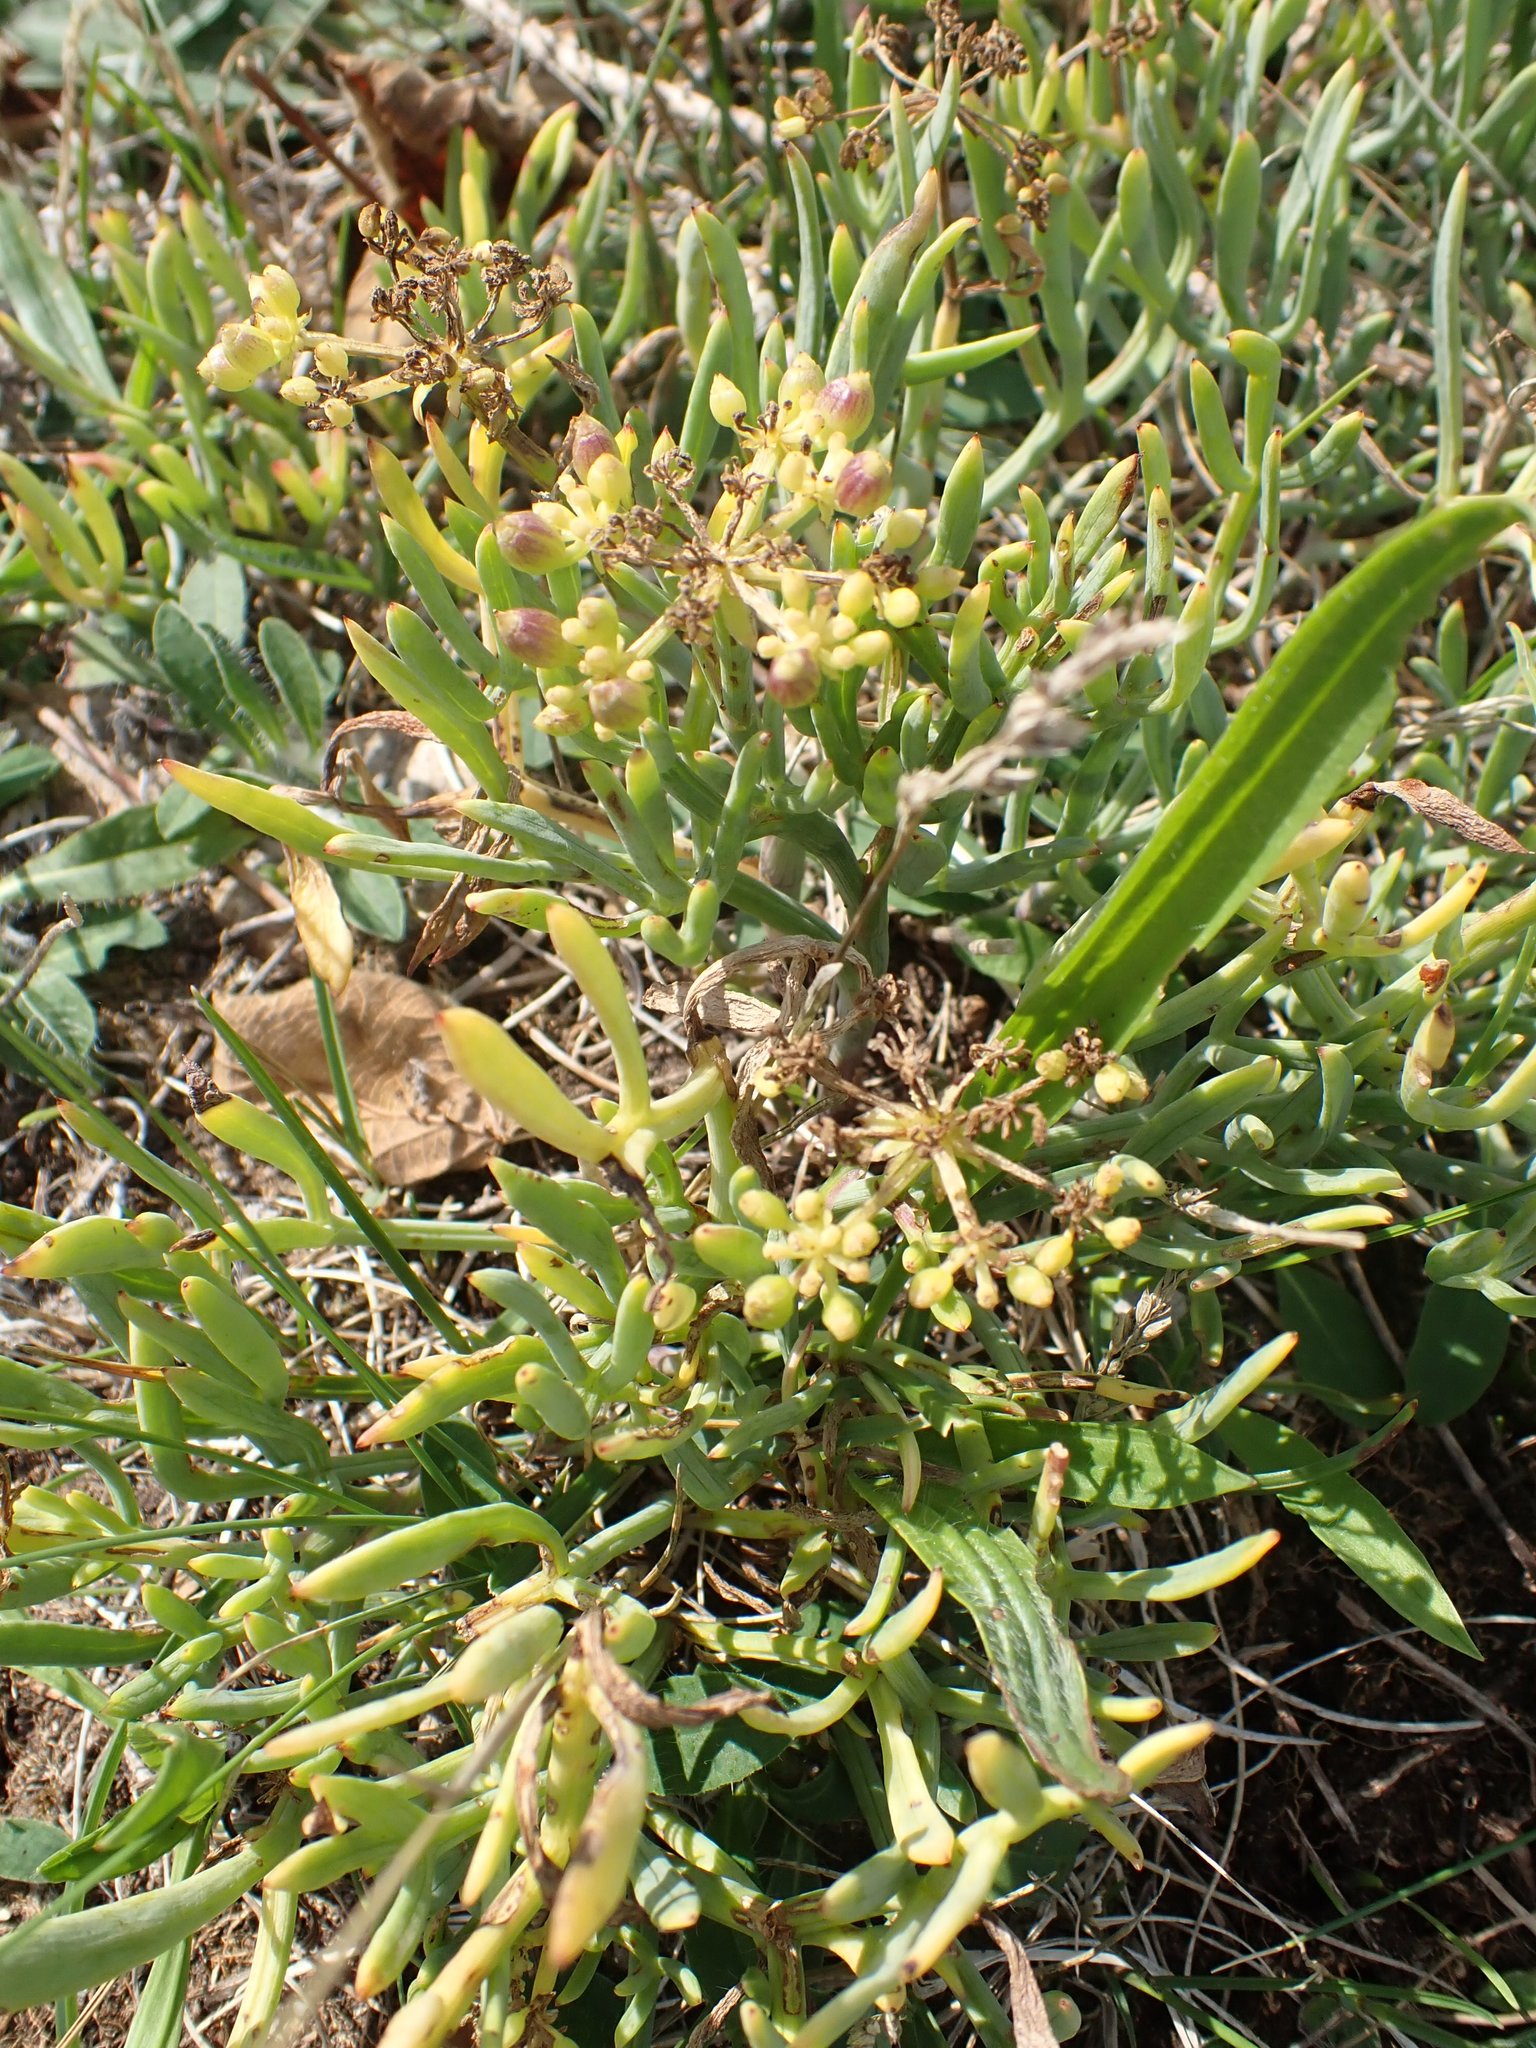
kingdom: Plantae
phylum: Tracheophyta
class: Magnoliopsida
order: Apiales
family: Apiaceae
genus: Crithmum
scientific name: Crithmum maritimum
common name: Rock samphire
